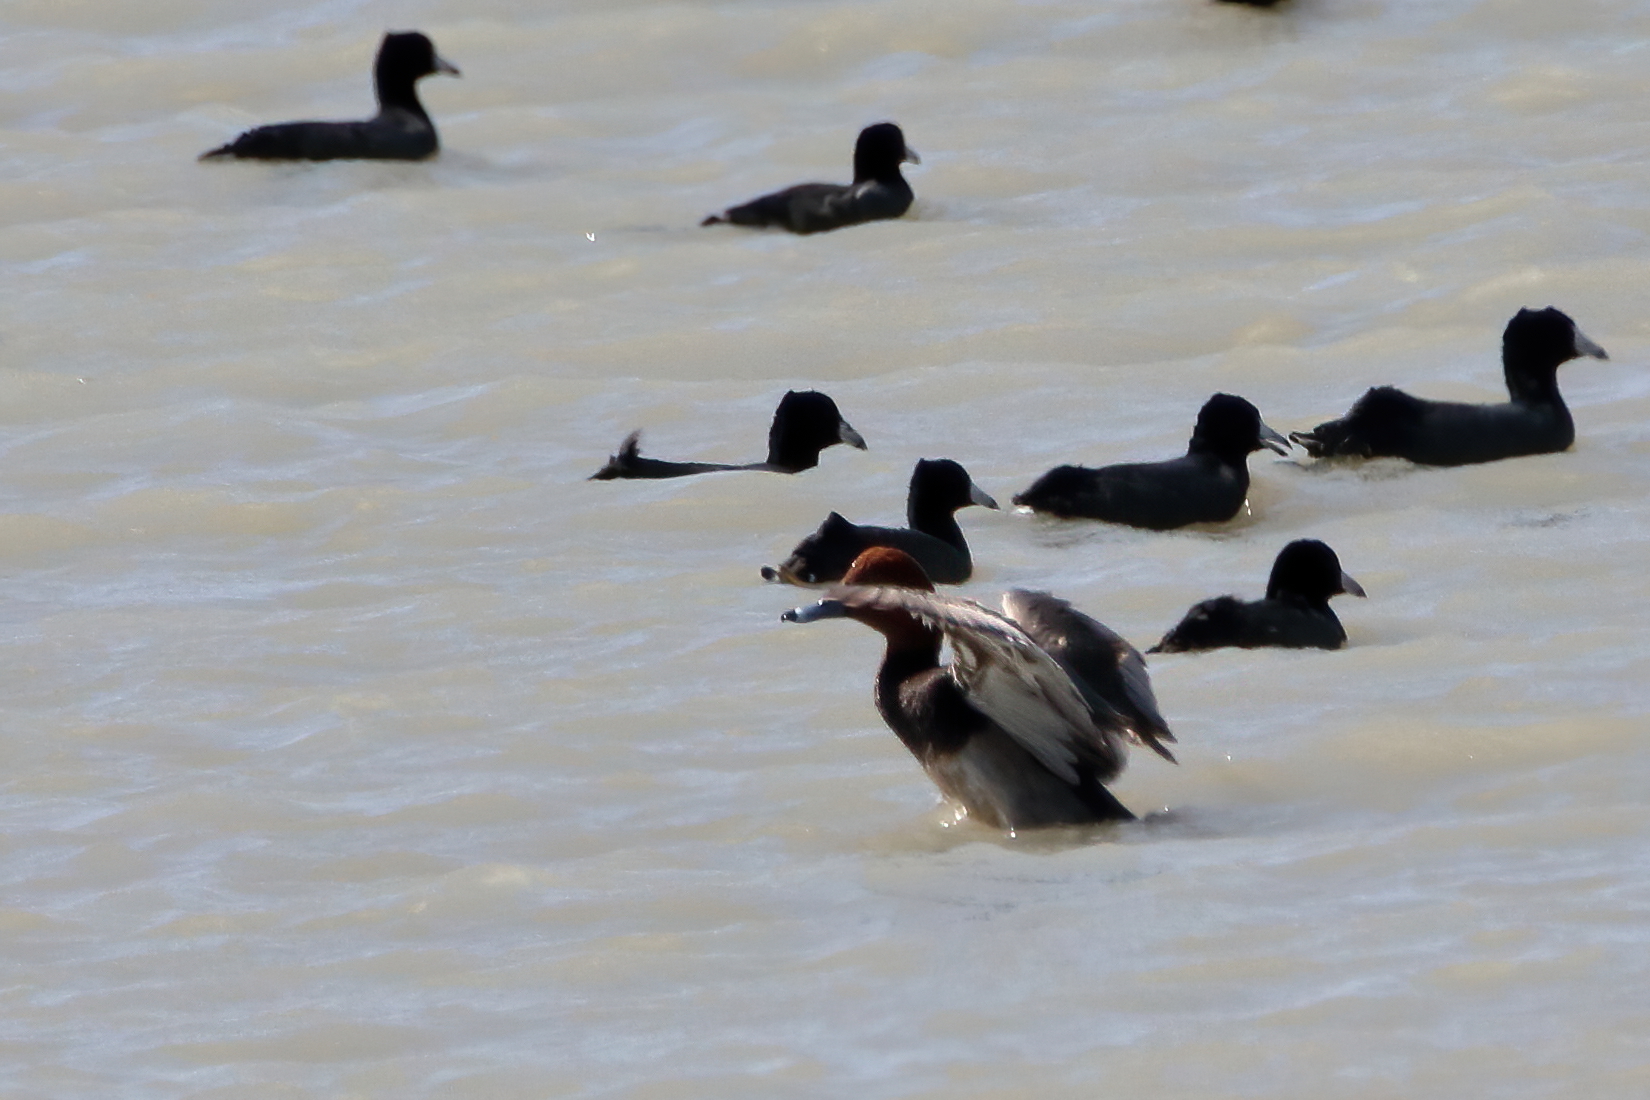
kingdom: Animalia
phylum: Chordata
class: Aves
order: Anseriformes
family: Anatidae
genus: Aythya
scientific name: Aythya americana
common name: Redhead
